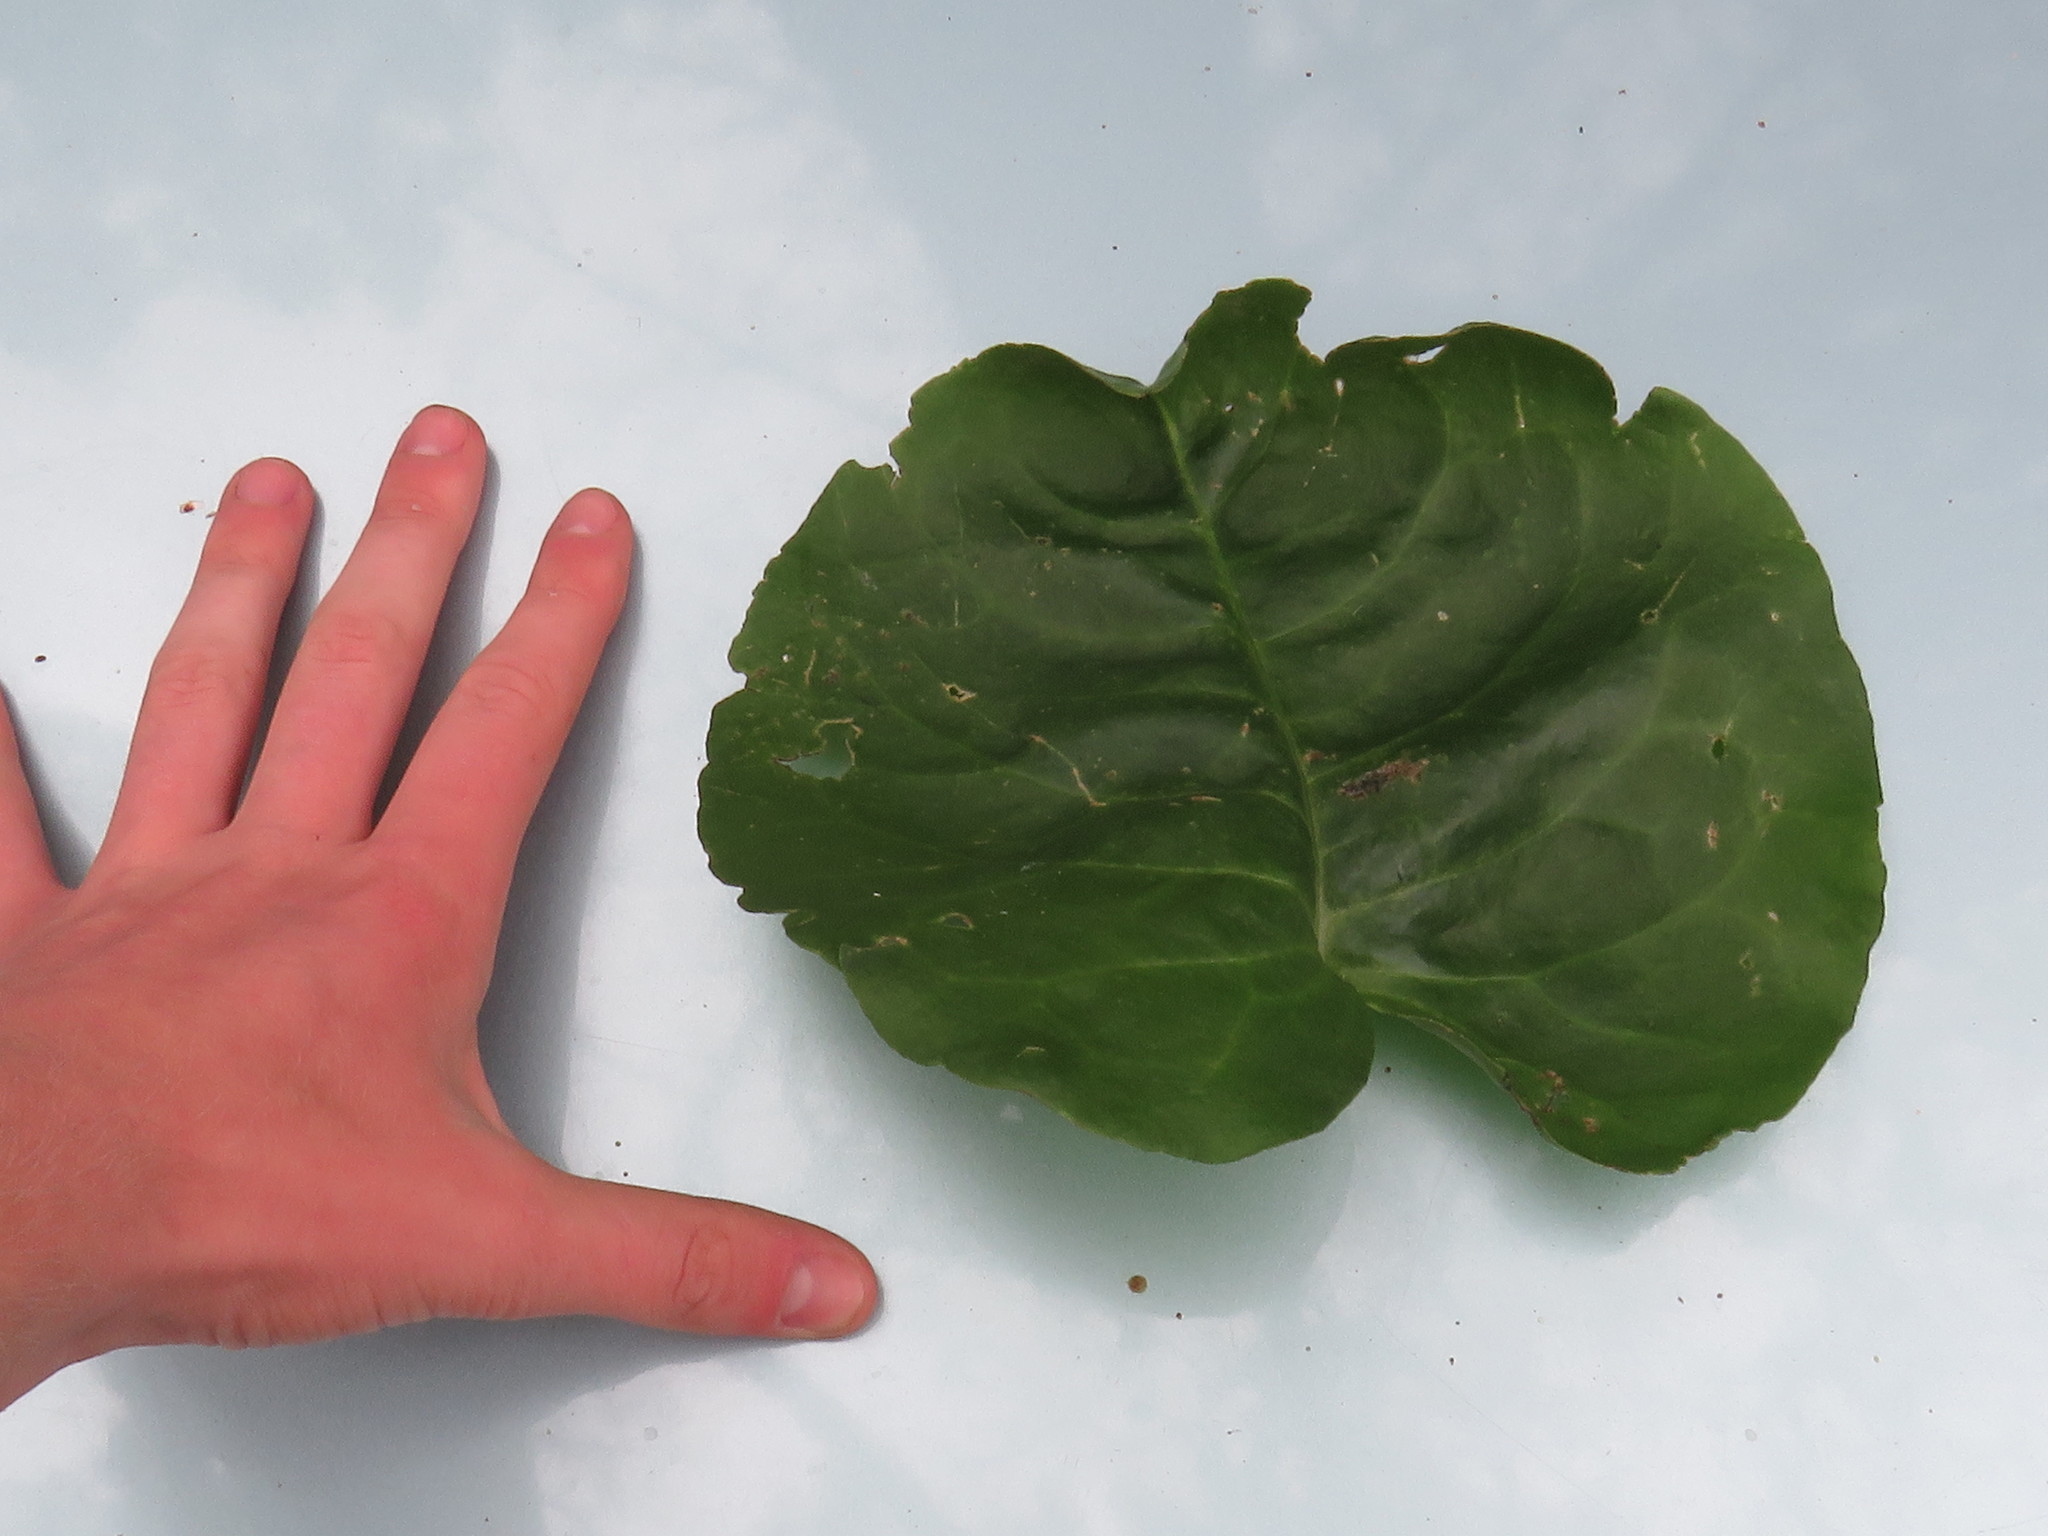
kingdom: Plantae
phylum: Tracheophyta
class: Magnoliopsida
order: Caryophyllales
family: Basellaceae
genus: Anredera
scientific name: Anredera cordifolia
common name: Heartleaf madeiravine
